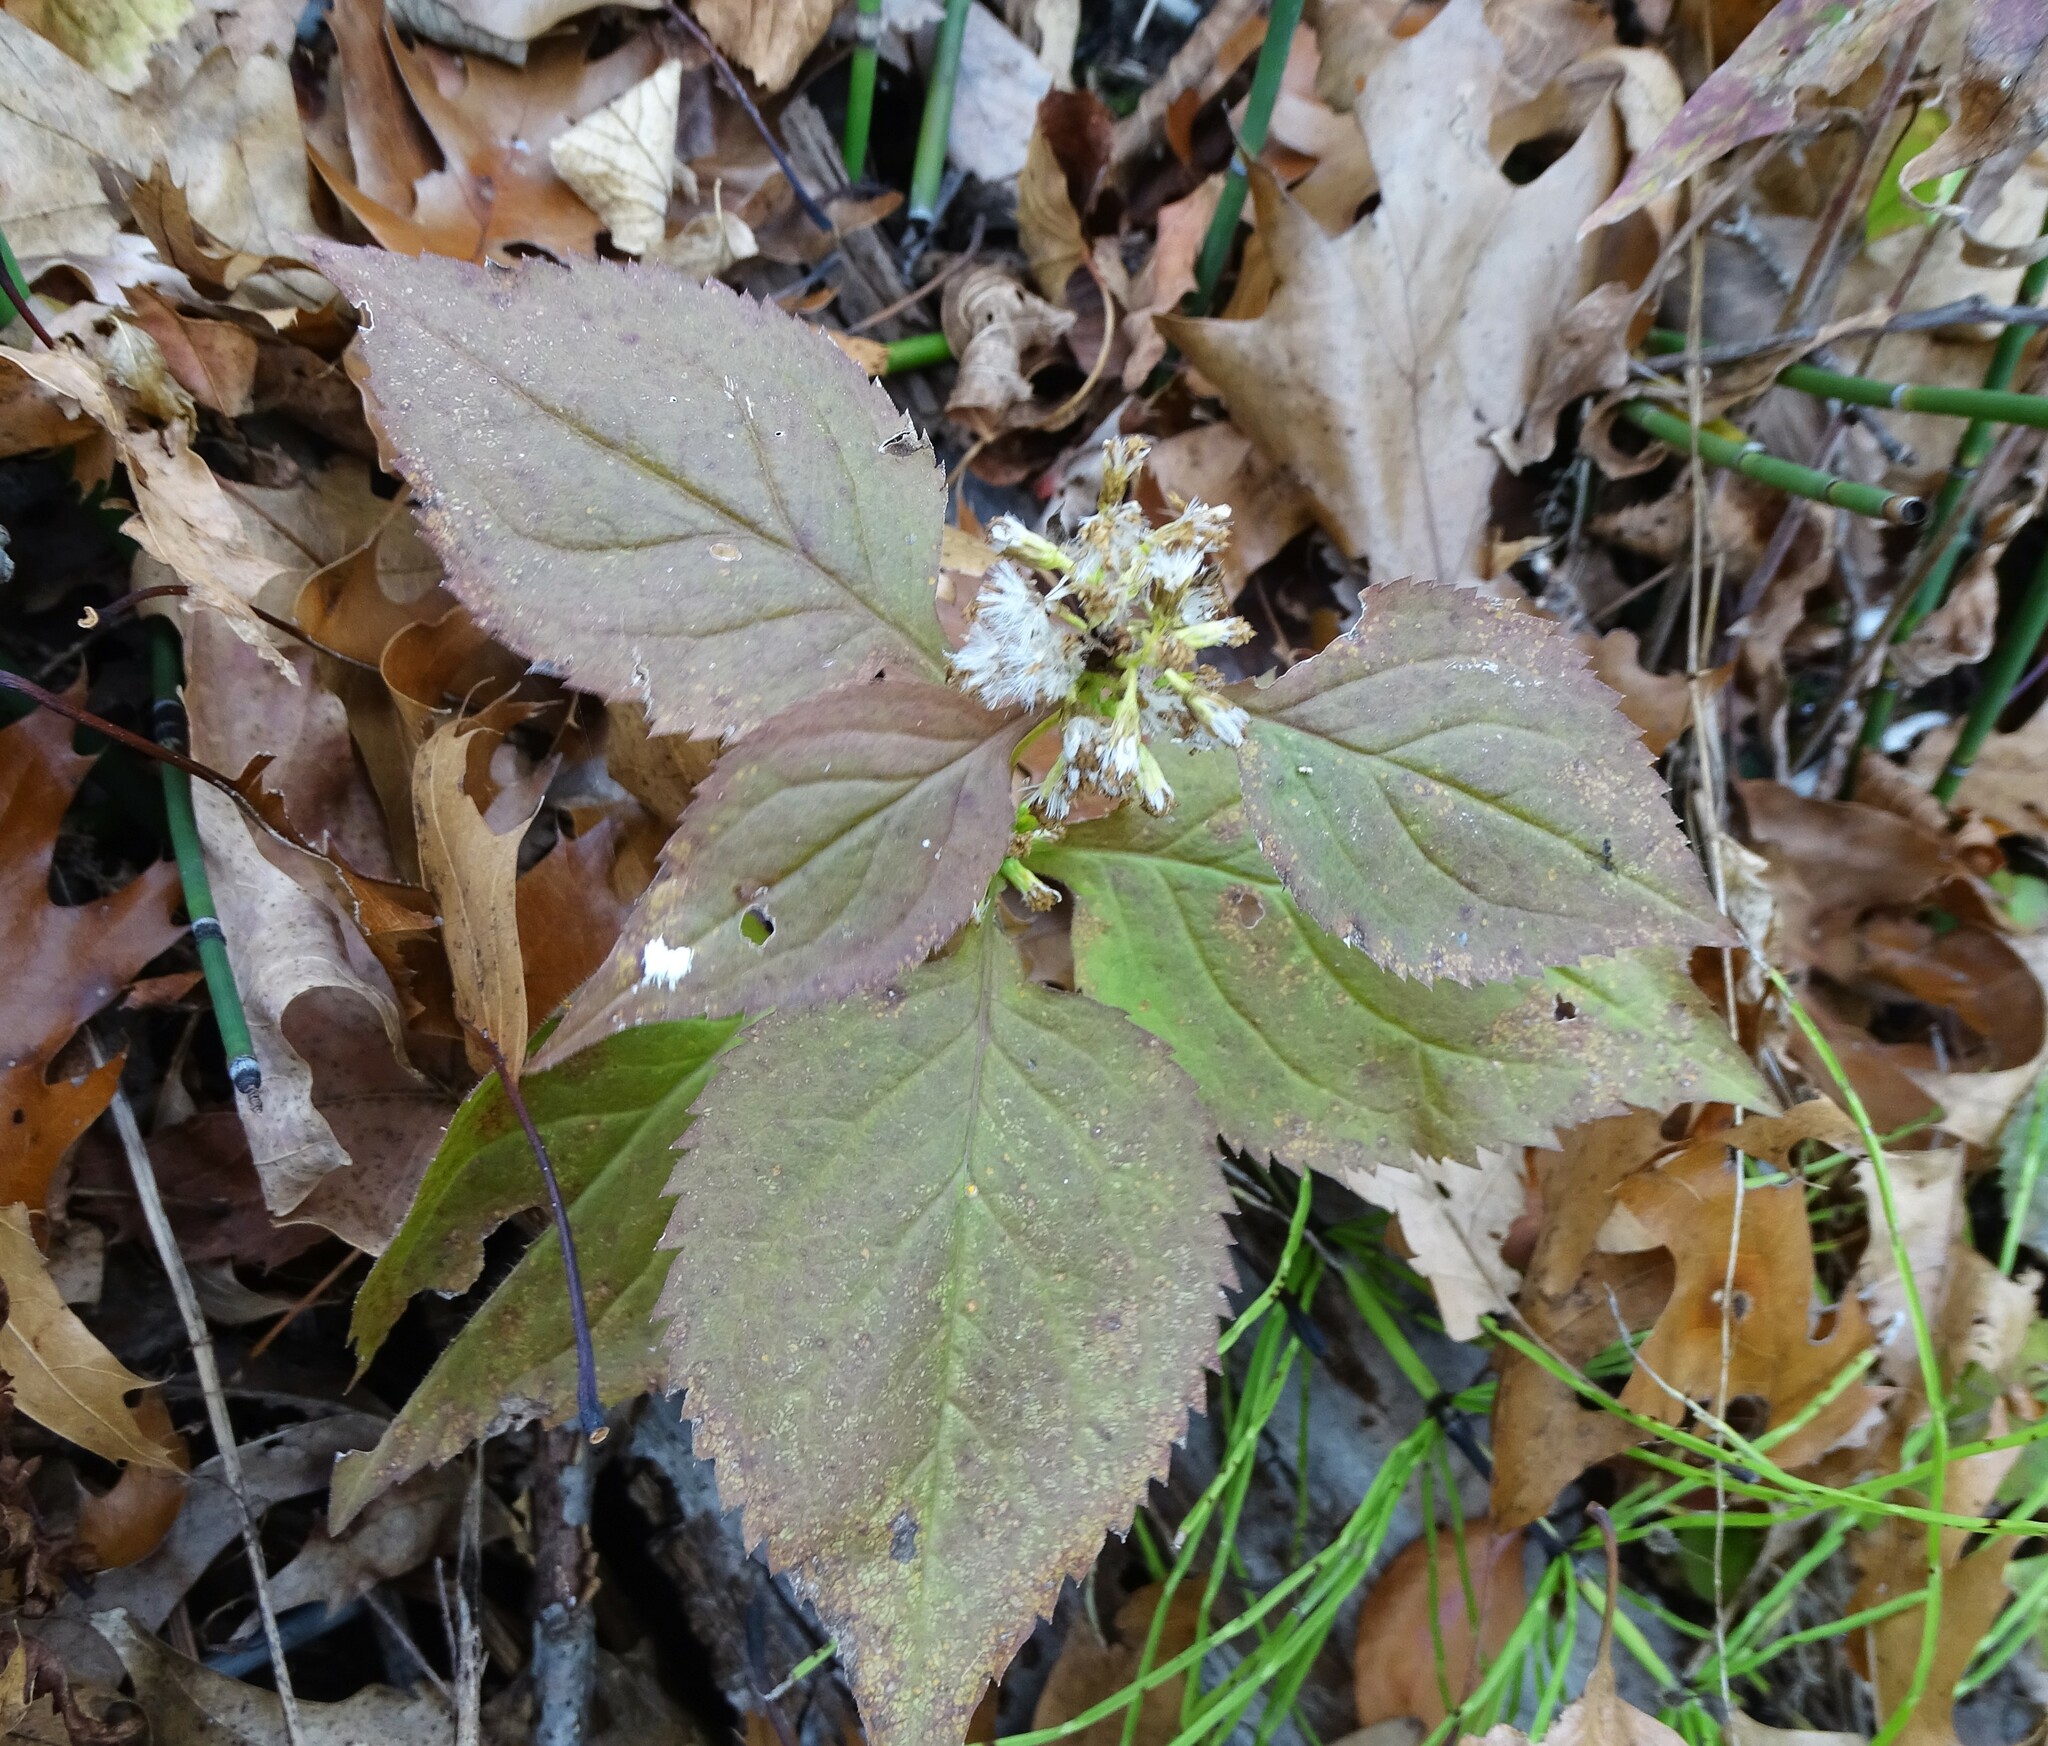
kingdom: Plantae
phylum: Tracheophyta
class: Magnoliopsida
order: Asterales
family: Asteraceae
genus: Solidago
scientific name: Solidago flexicaulis
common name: Zig-zag goldenrod
